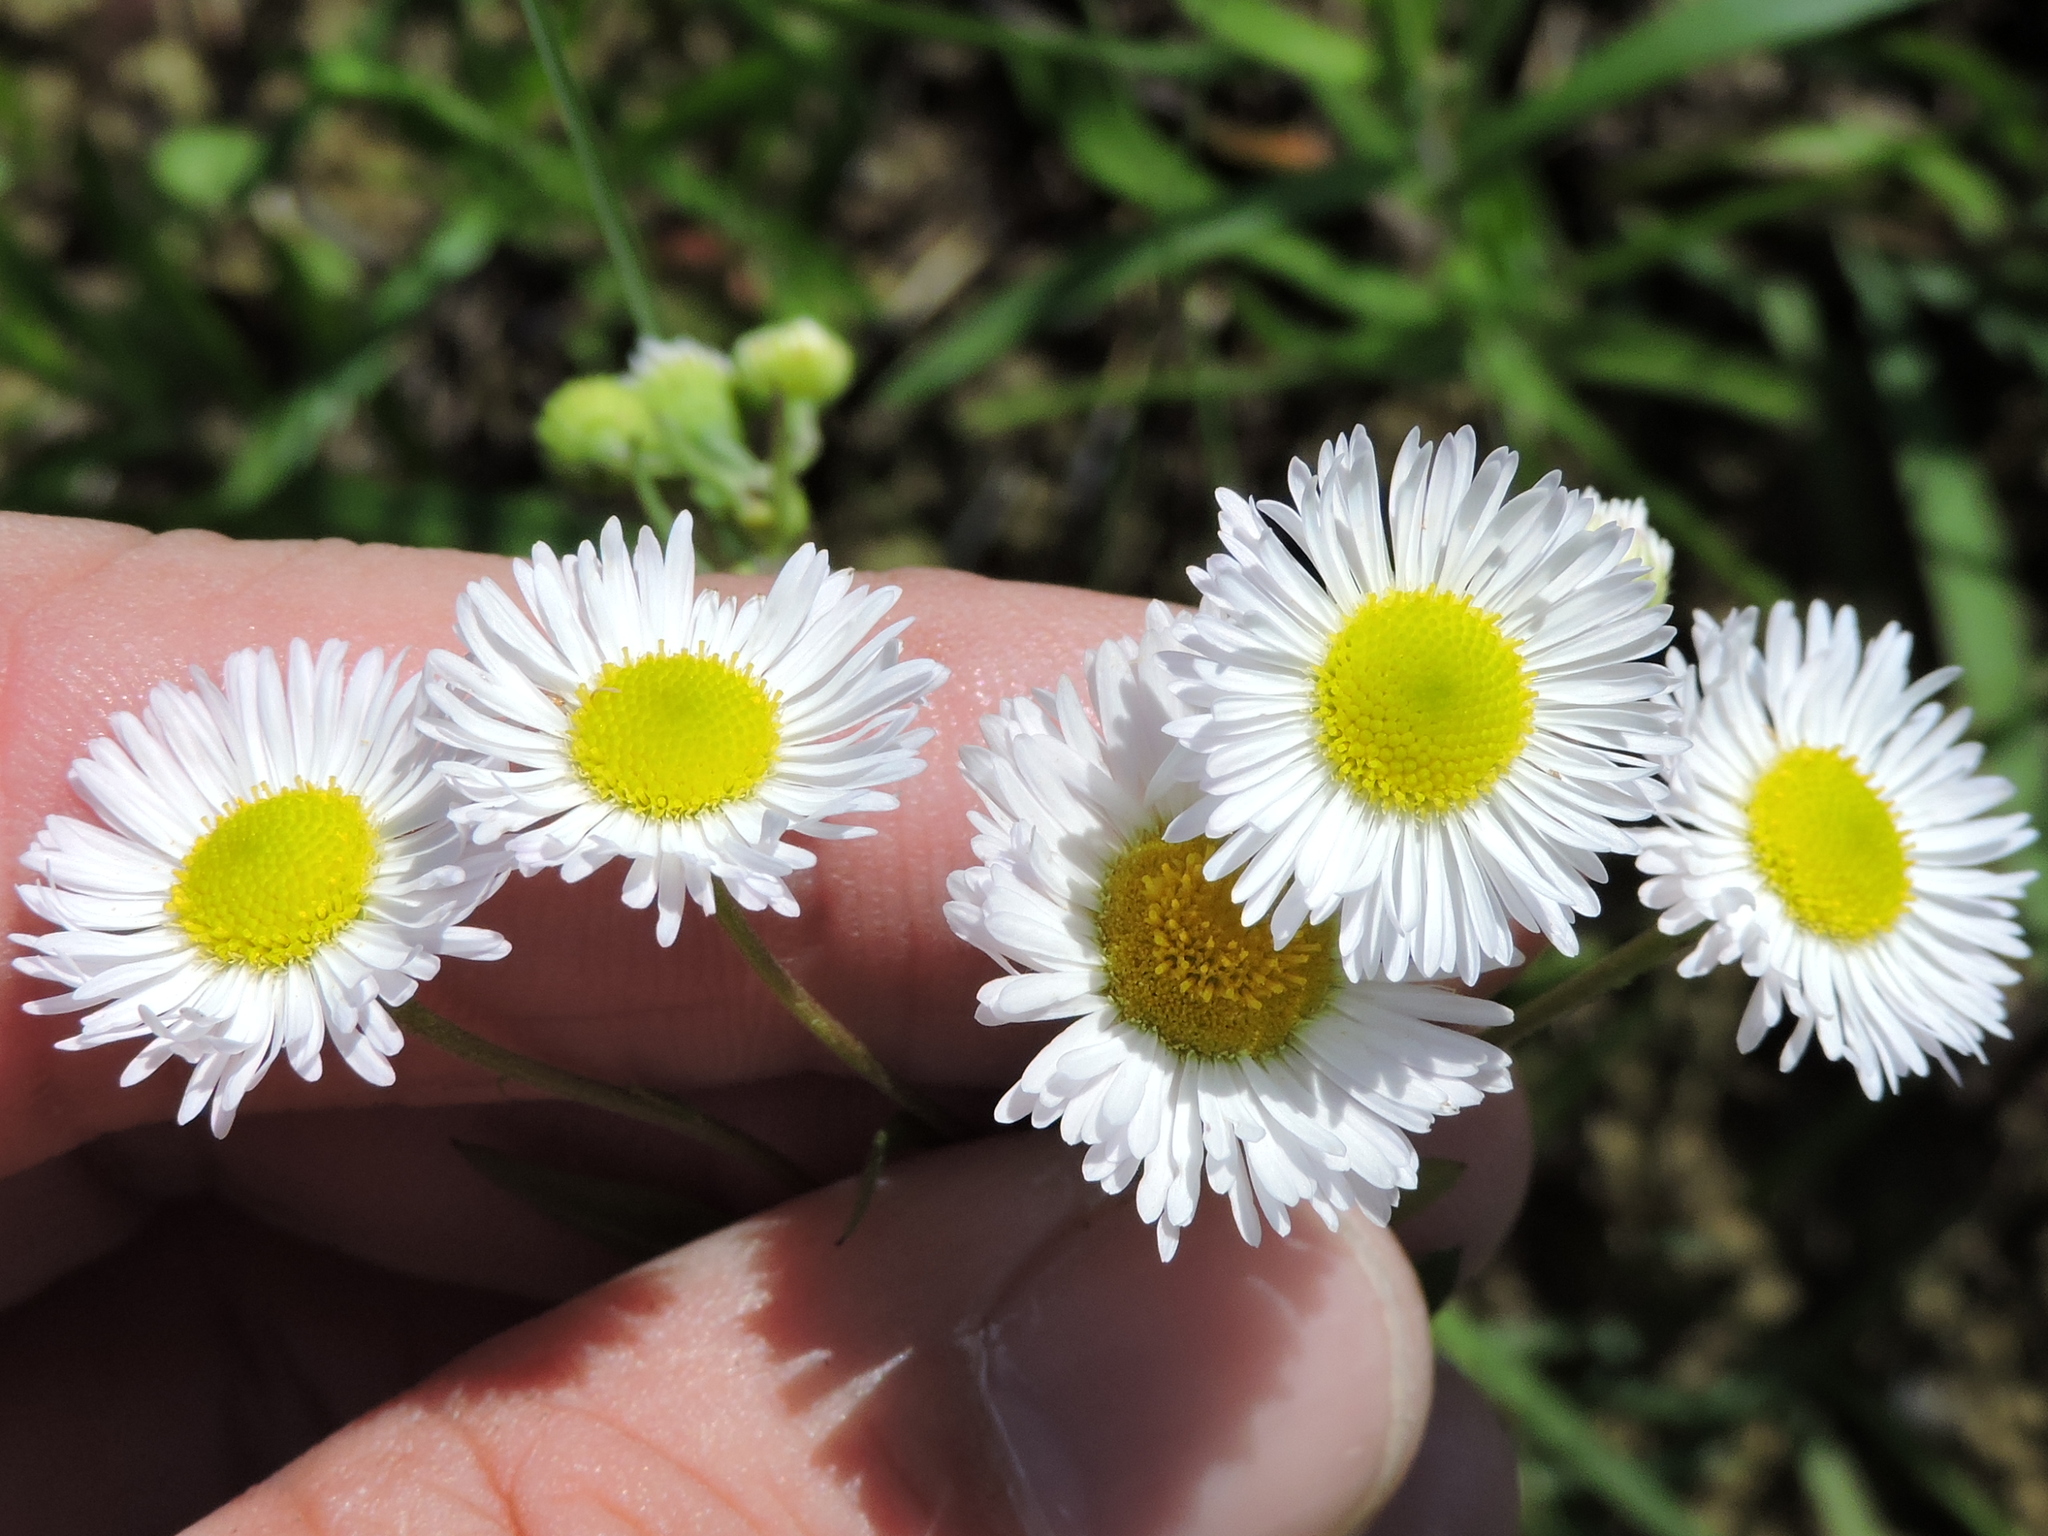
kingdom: Plantae
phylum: Tracheophyta
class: Magnoliopsida
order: Asterales
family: Asteraceae
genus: Erigeron
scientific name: Erigeron strigosus
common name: Common eastern fleabane
